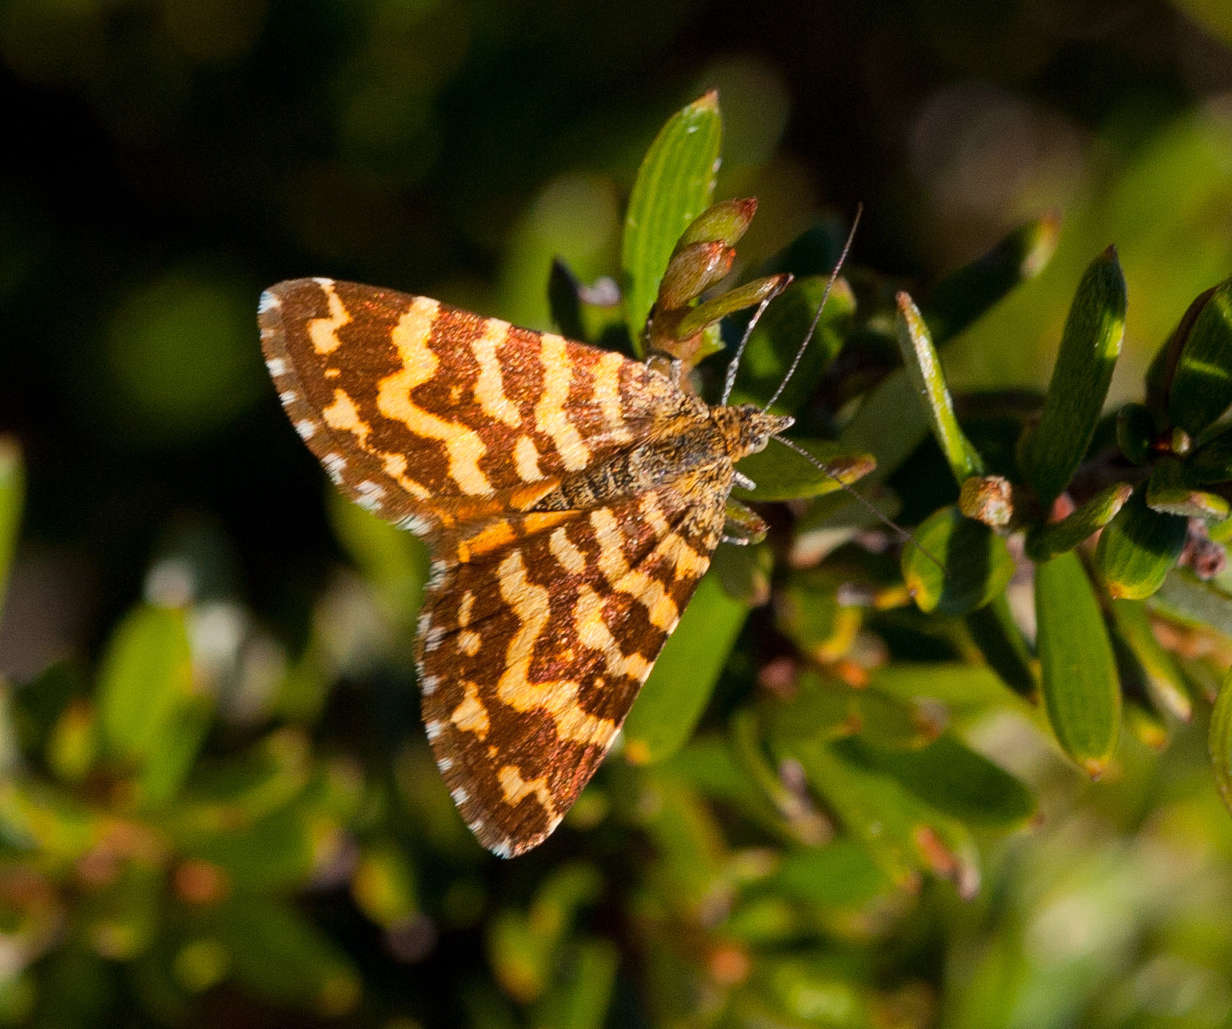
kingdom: Animalia
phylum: Arthropoda
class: Insecta
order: Lepidoptera
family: Geometridae
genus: Chrysolarentia
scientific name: Chrysolarentia chrysocyma
